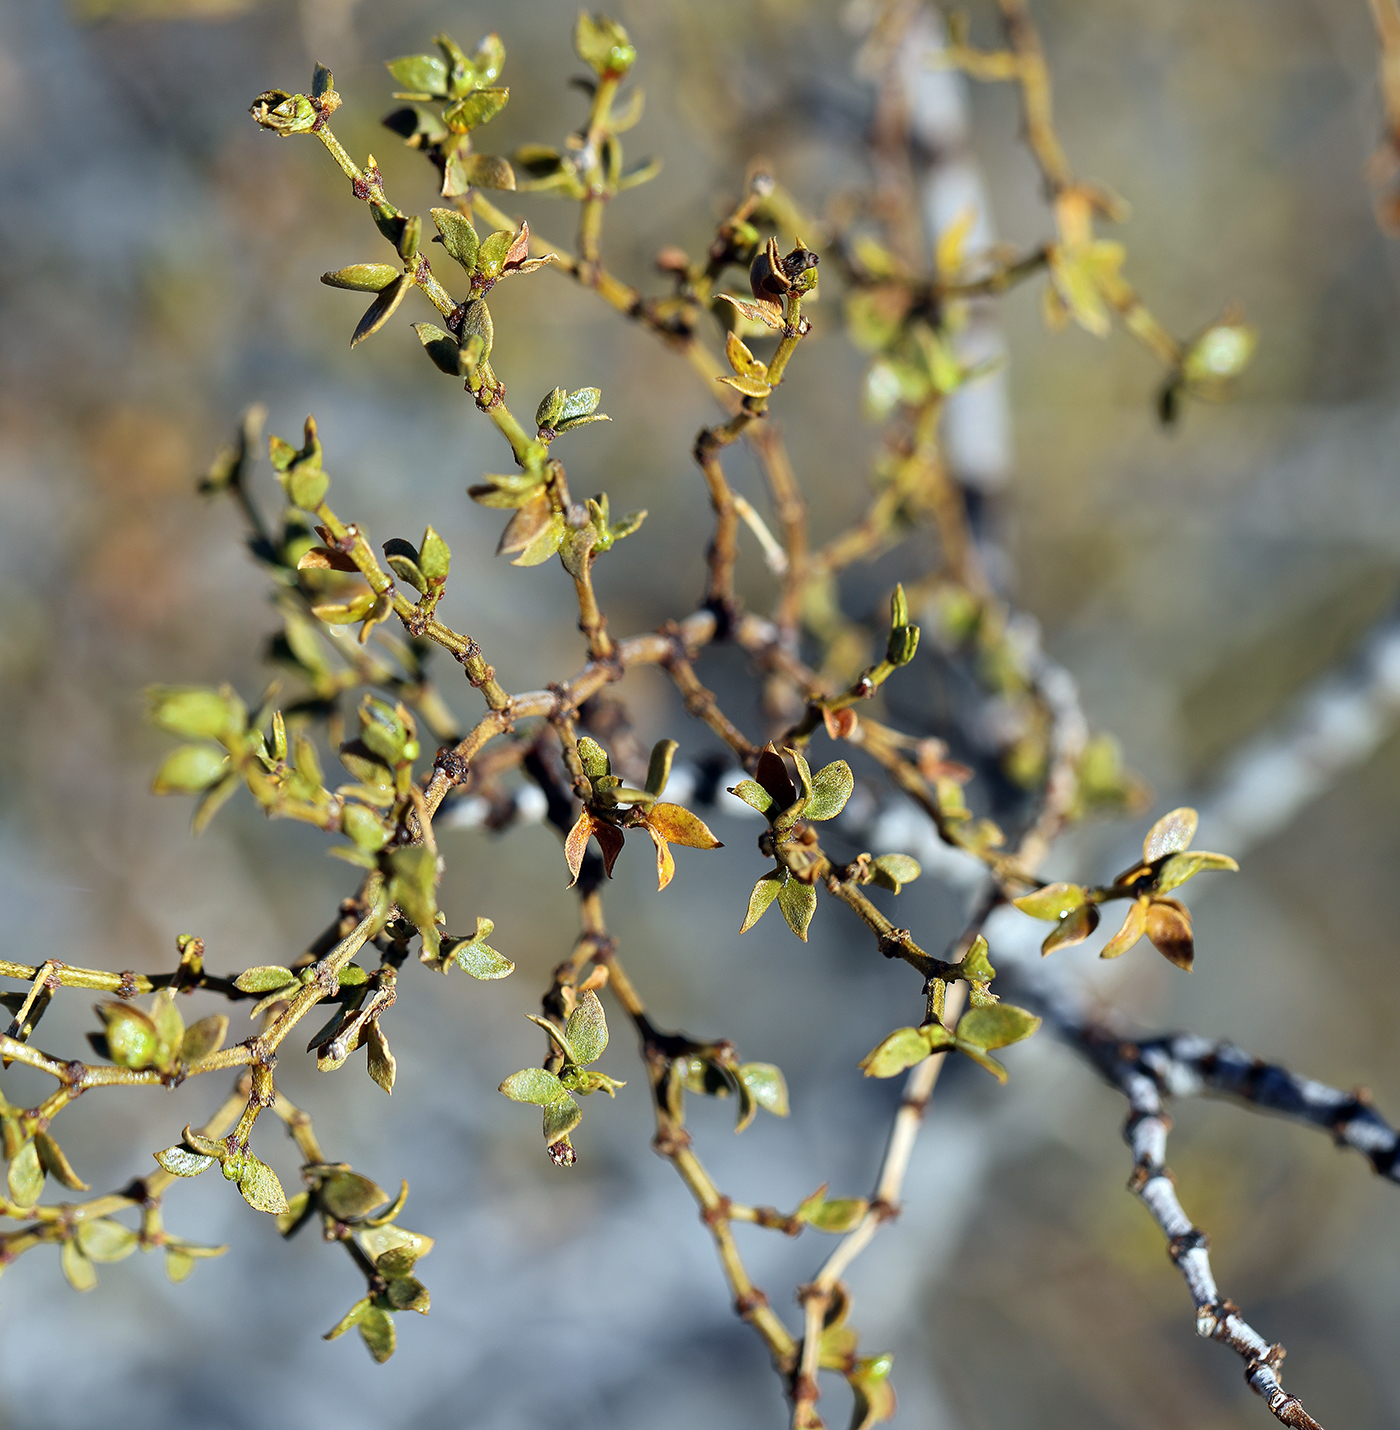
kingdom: Plantae
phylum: Tracheophyta
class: Magnoliopsida
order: Zygophyllales
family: Zygophyllaceae
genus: Larrea
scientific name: Larrea tridentata
